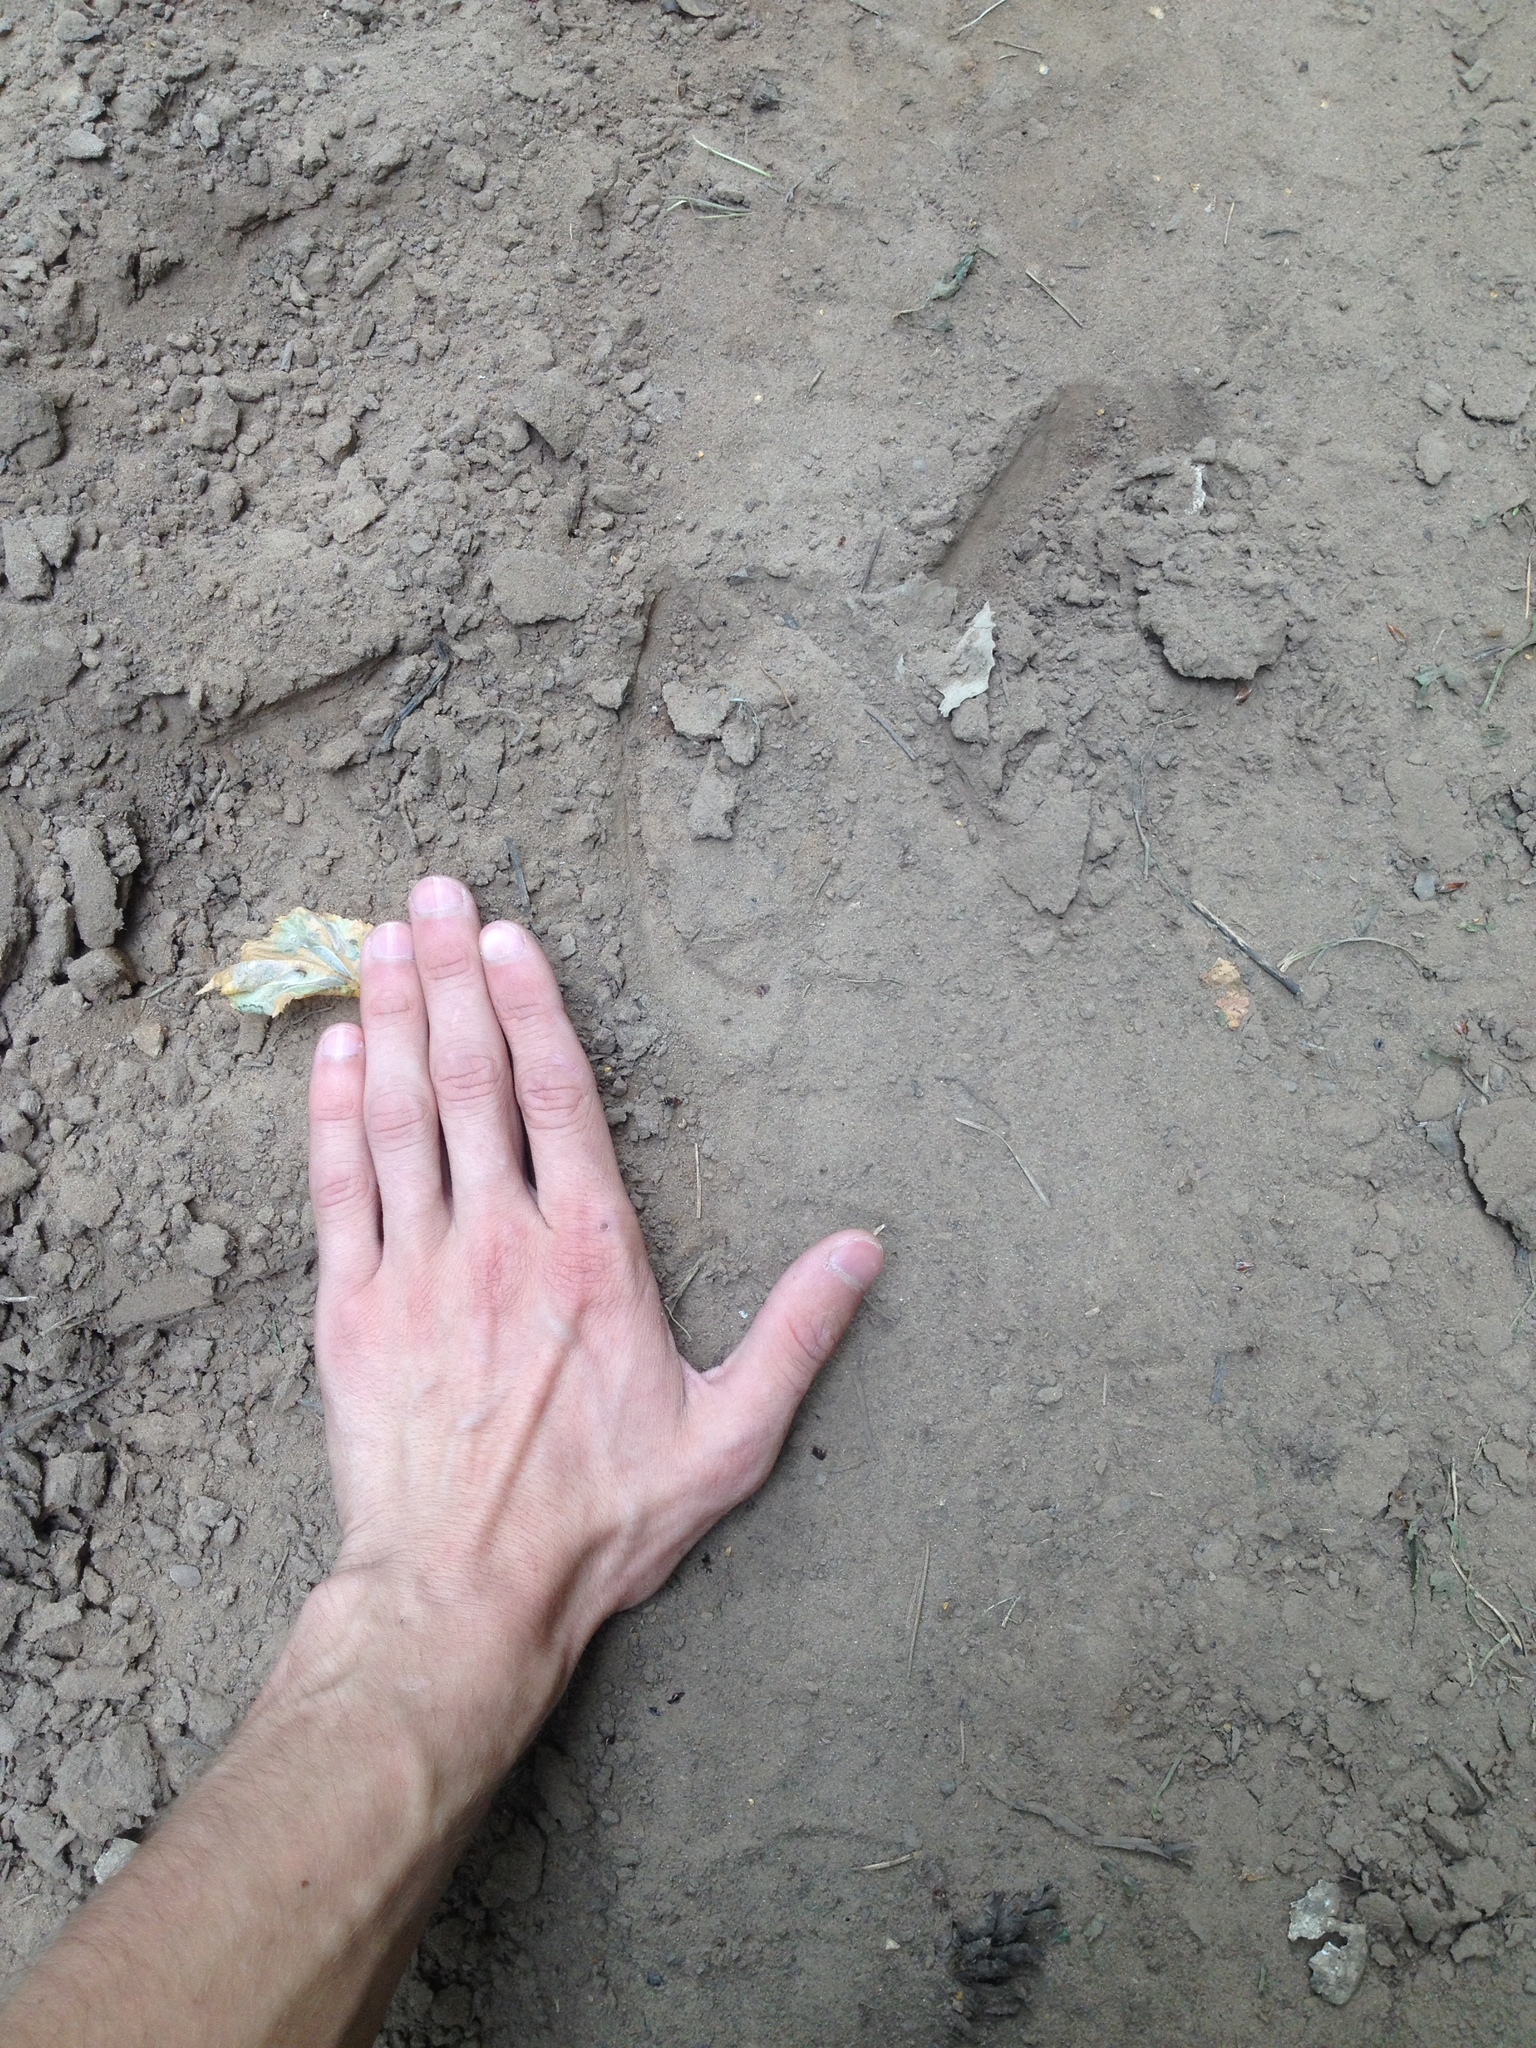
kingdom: Animalia
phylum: Chordata
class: Mammalia
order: Artiodactyla
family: Cervidae
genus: Alces
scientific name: Alces alces
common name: Moose
